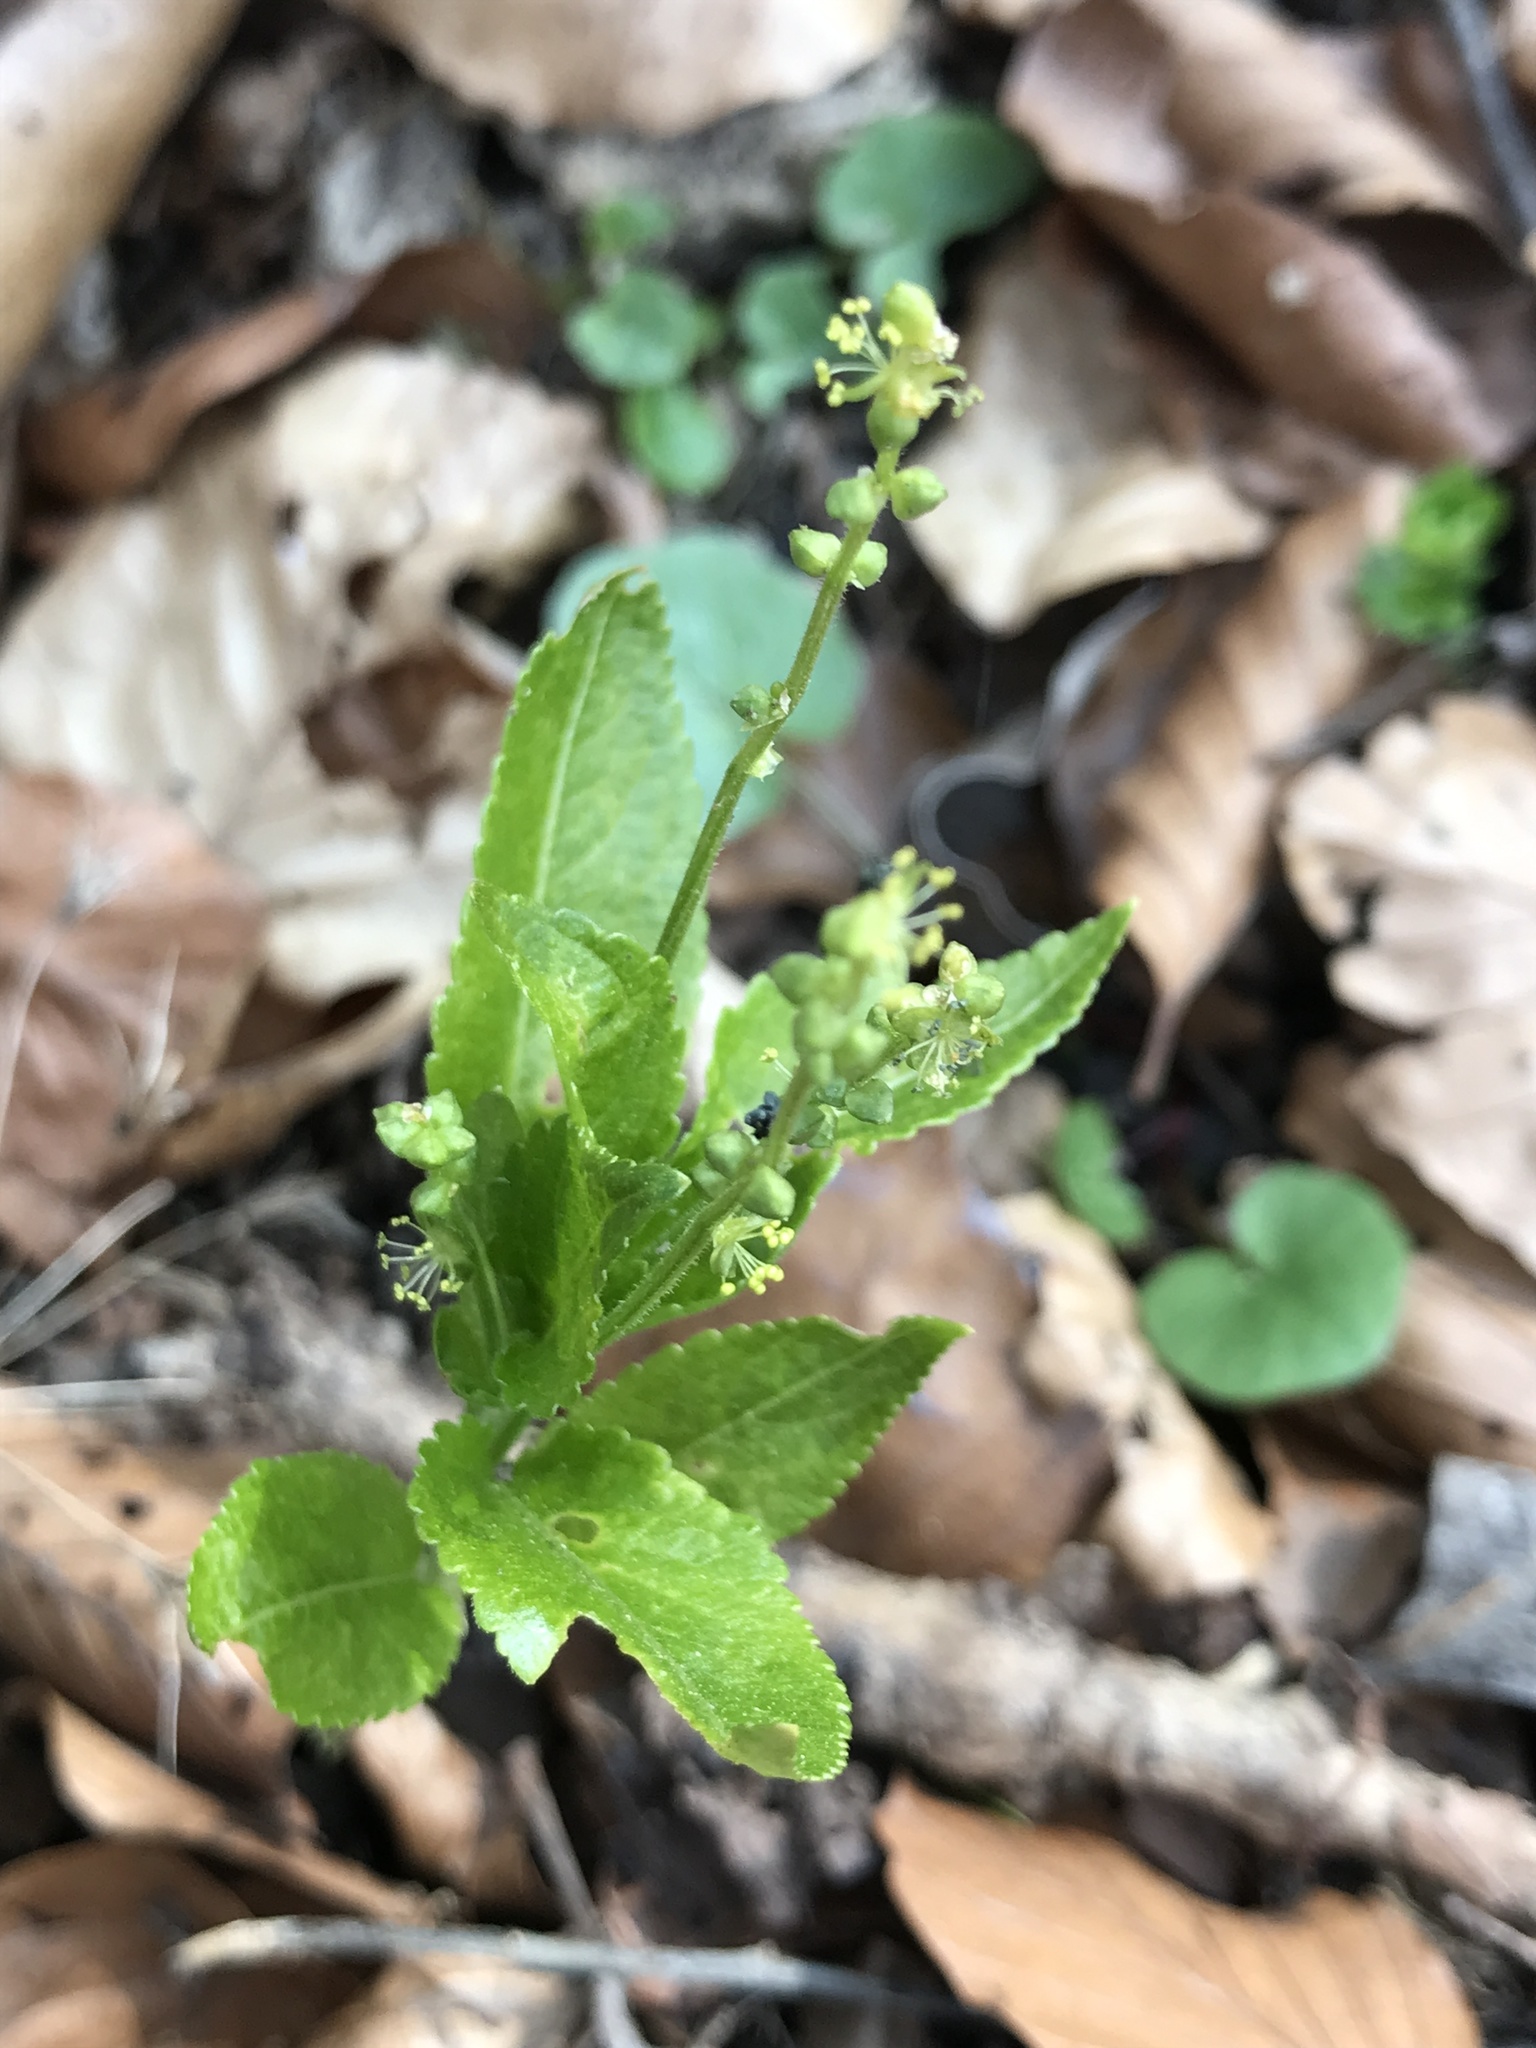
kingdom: Plantae
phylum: Tracheophyta
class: Magnoliopsida
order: Malpighiales
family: Euphorbiaceae
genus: Mercurialis
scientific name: Mercurialis perennis
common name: Dog mercury
